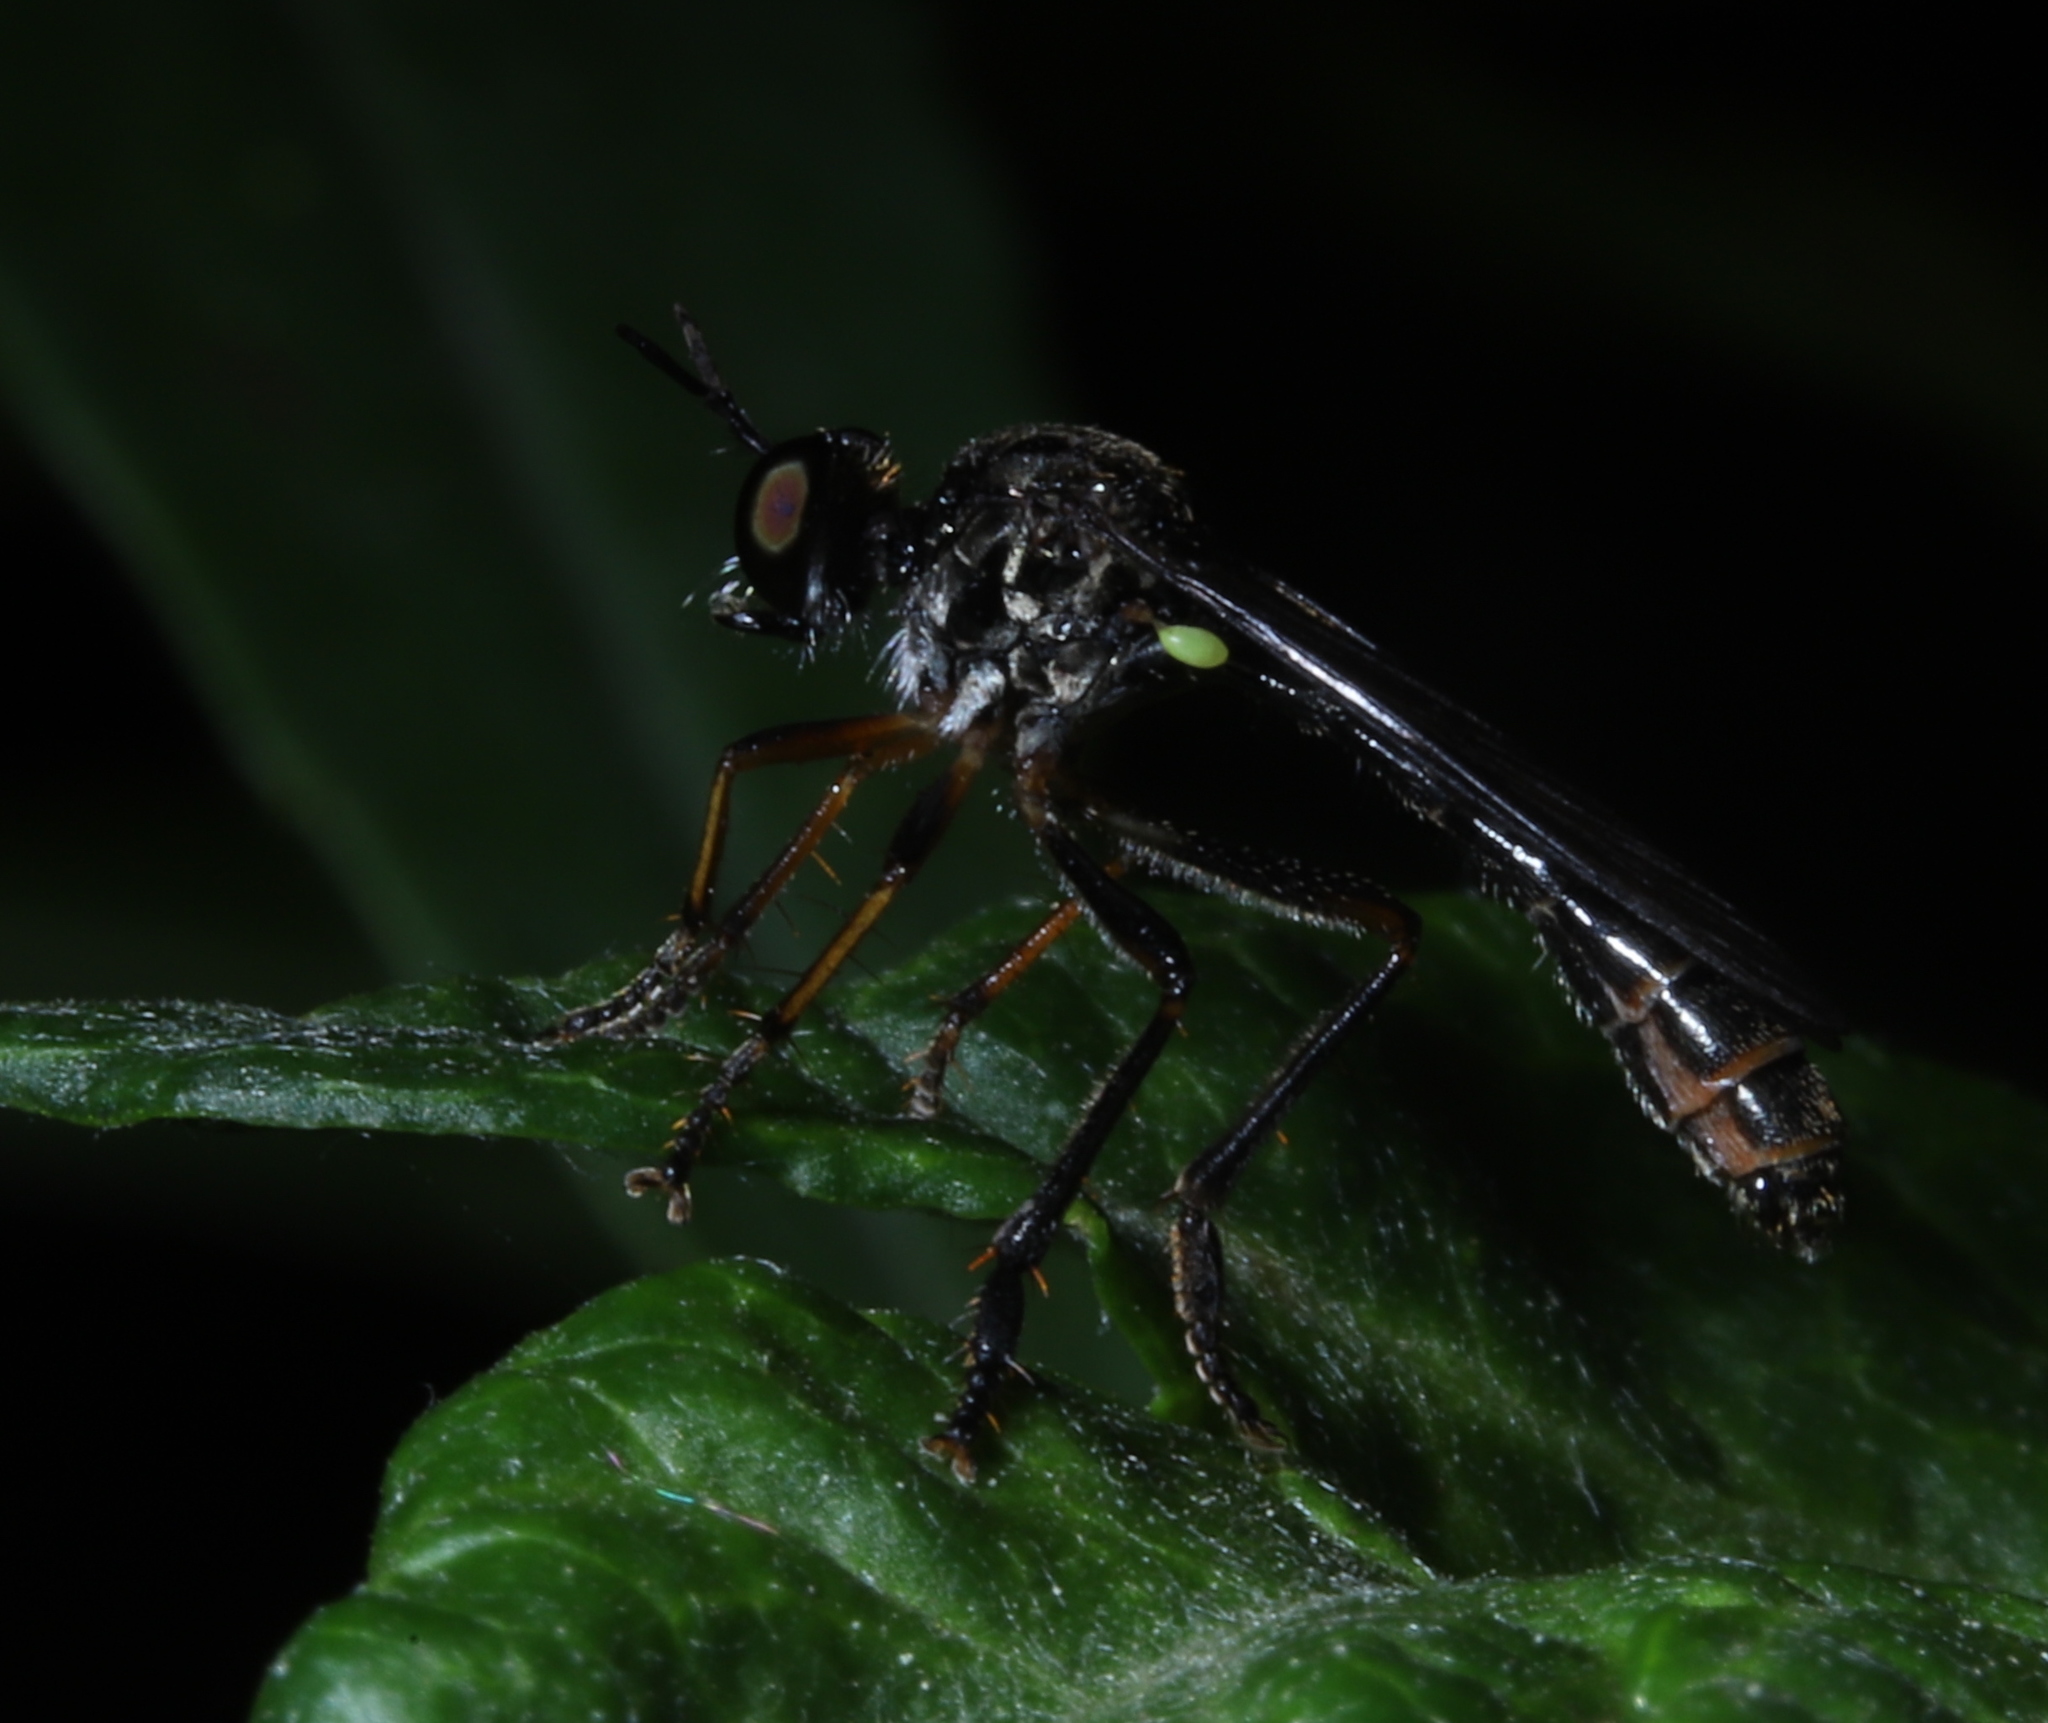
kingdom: Animalia
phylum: Arthropoda
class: Insecta
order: Diptera
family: Asilidae
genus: Dioctria
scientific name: Dioctria hyalipennis
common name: Stripe-legged robberfly
